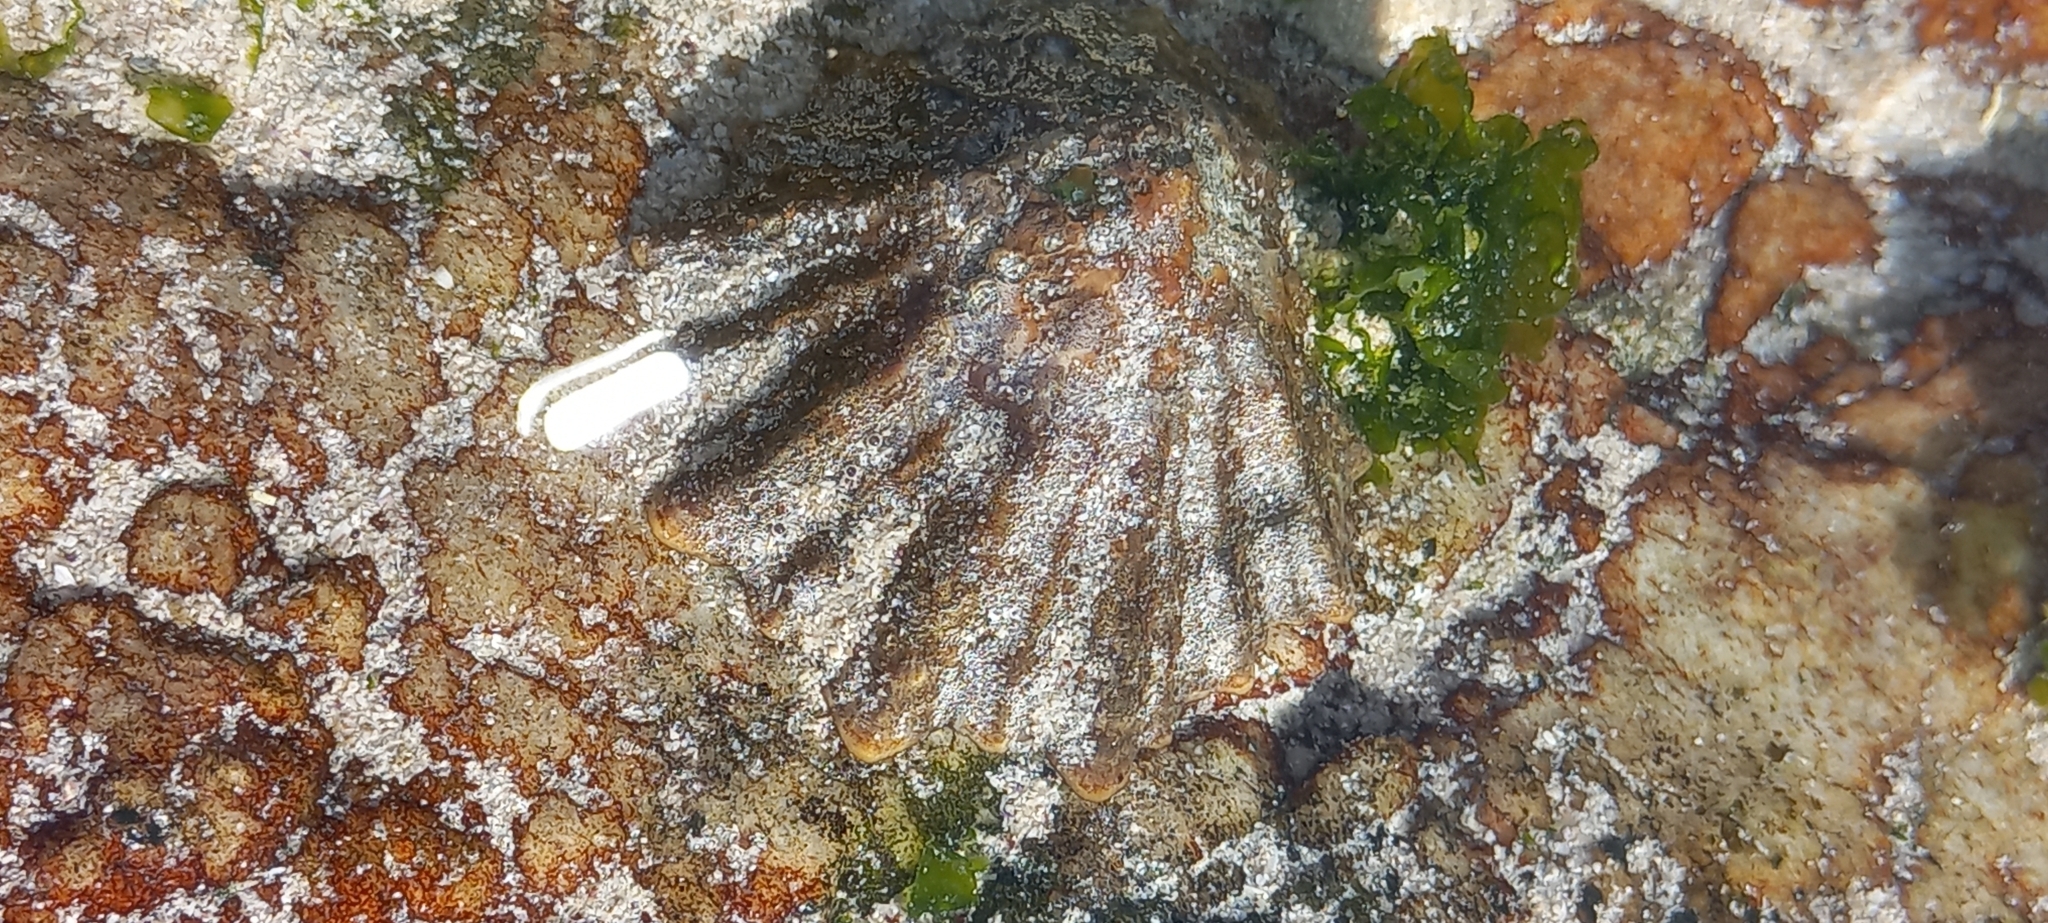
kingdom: Animalia
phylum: Mollusca
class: Gastropoda
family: Patellidae
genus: Cymbula
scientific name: Cymbula oculus
